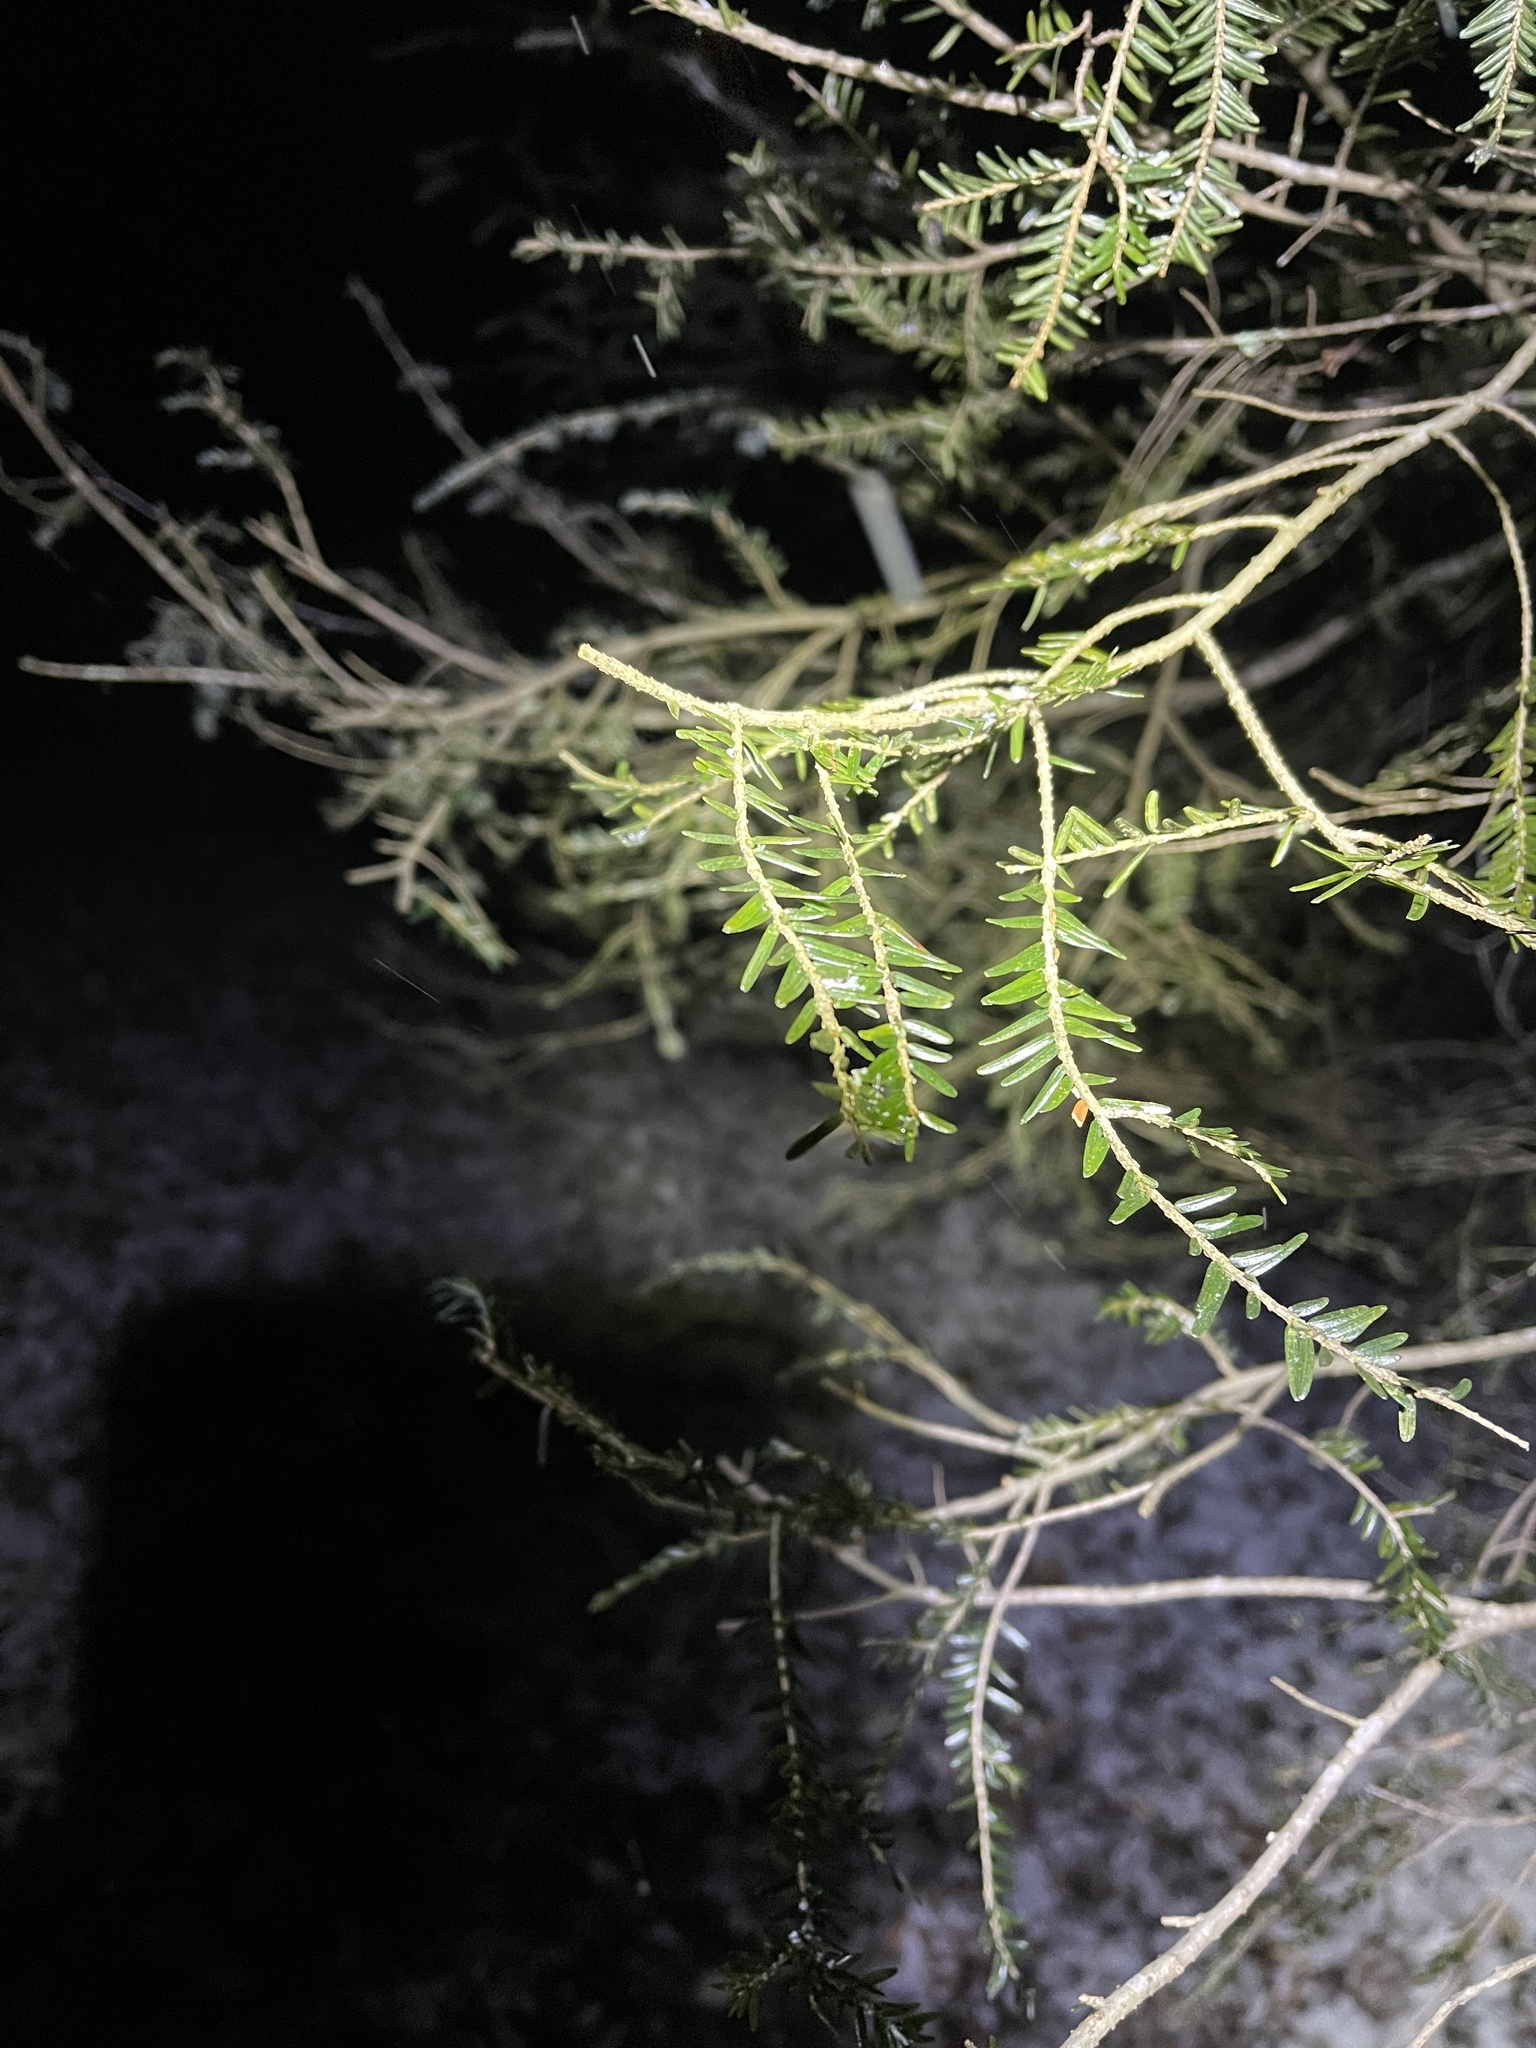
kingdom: Plantae
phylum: Tracheophyta
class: Pinopsida
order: Pinales
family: Pinaceae
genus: Tsuga
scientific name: Tsuga canadensis
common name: Eastern hemlock
